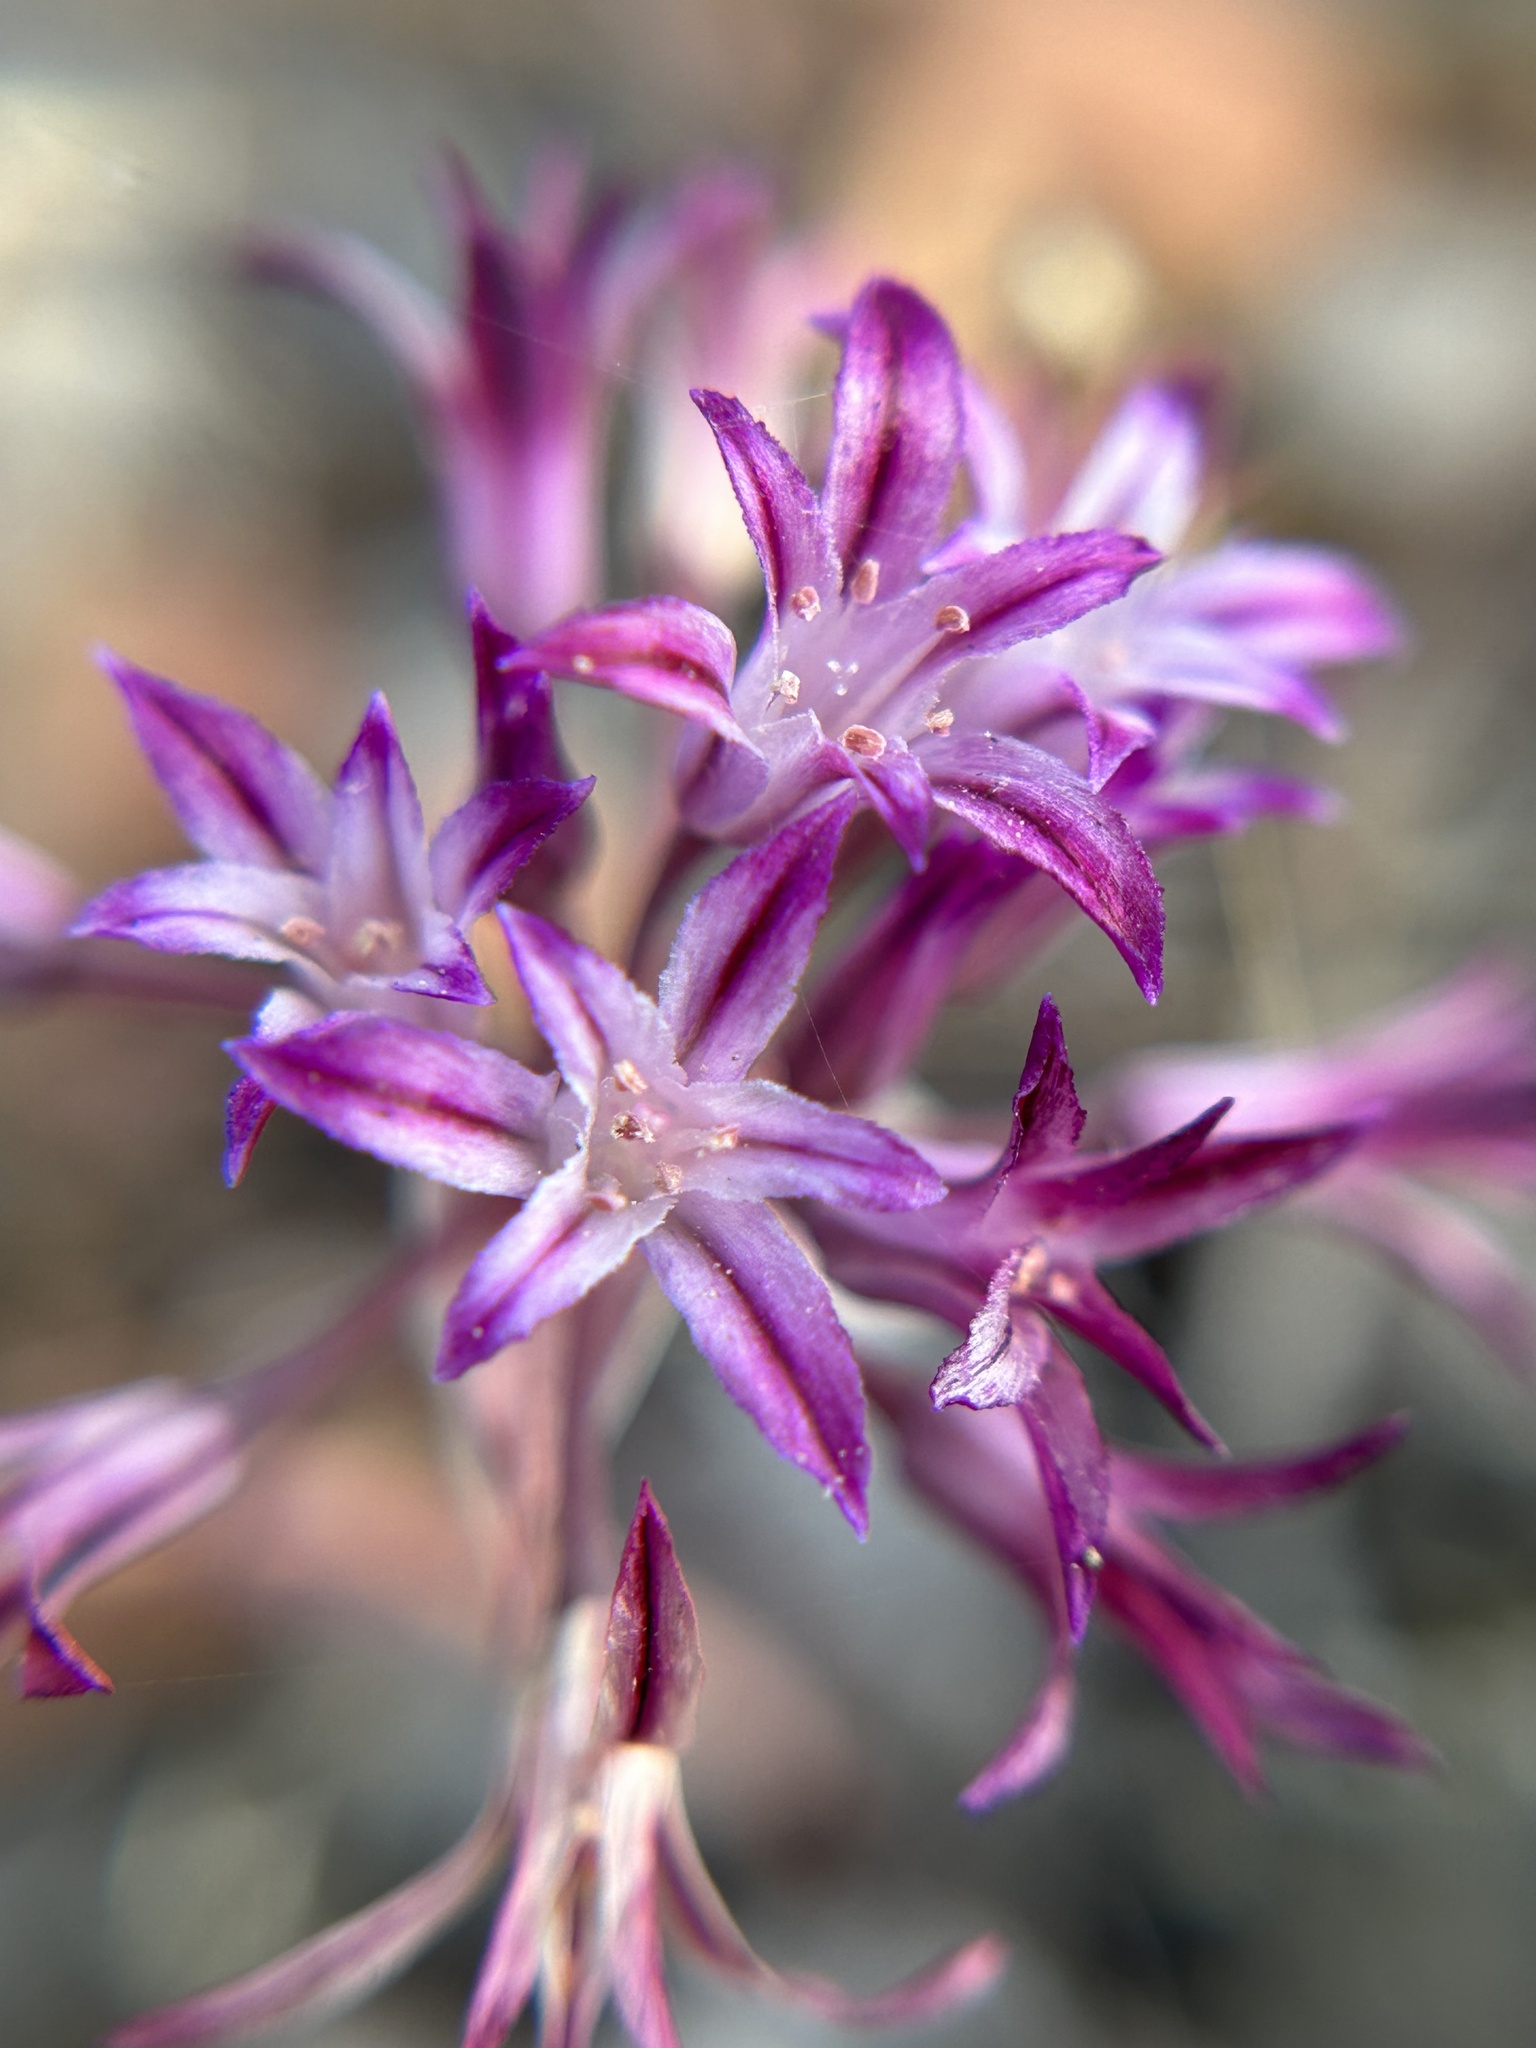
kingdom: Plantae
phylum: Tracheophyta
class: Liliopsida
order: Asparagales
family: Amaryllidaceae
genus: Allium
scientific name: Allium abramsii
